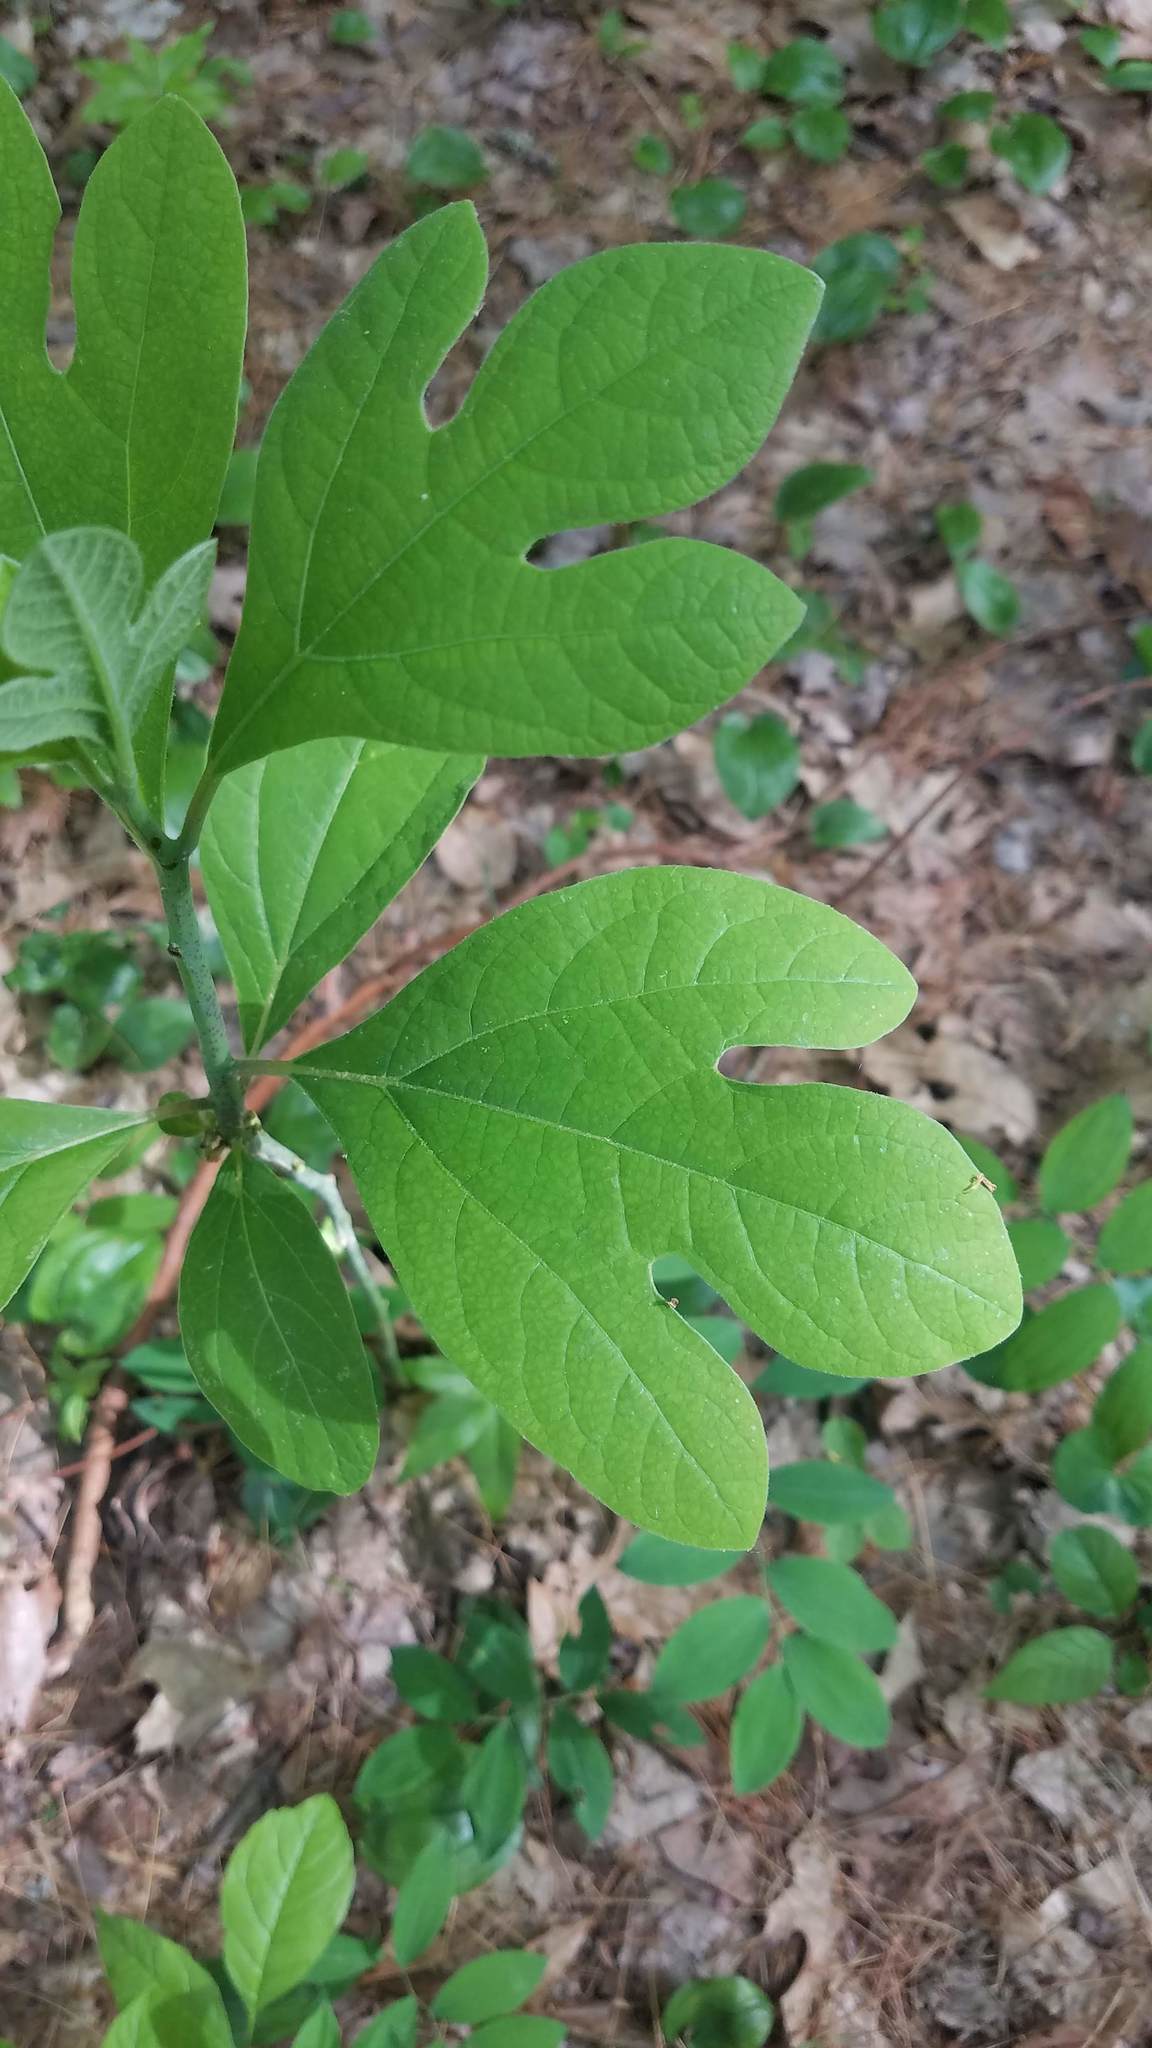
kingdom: Plantae
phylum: Tracheophyta
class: Magnoliopsida
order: Laurales
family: Lauraceae
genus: Sassafras
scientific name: Sassafras albidum
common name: Sassafras
